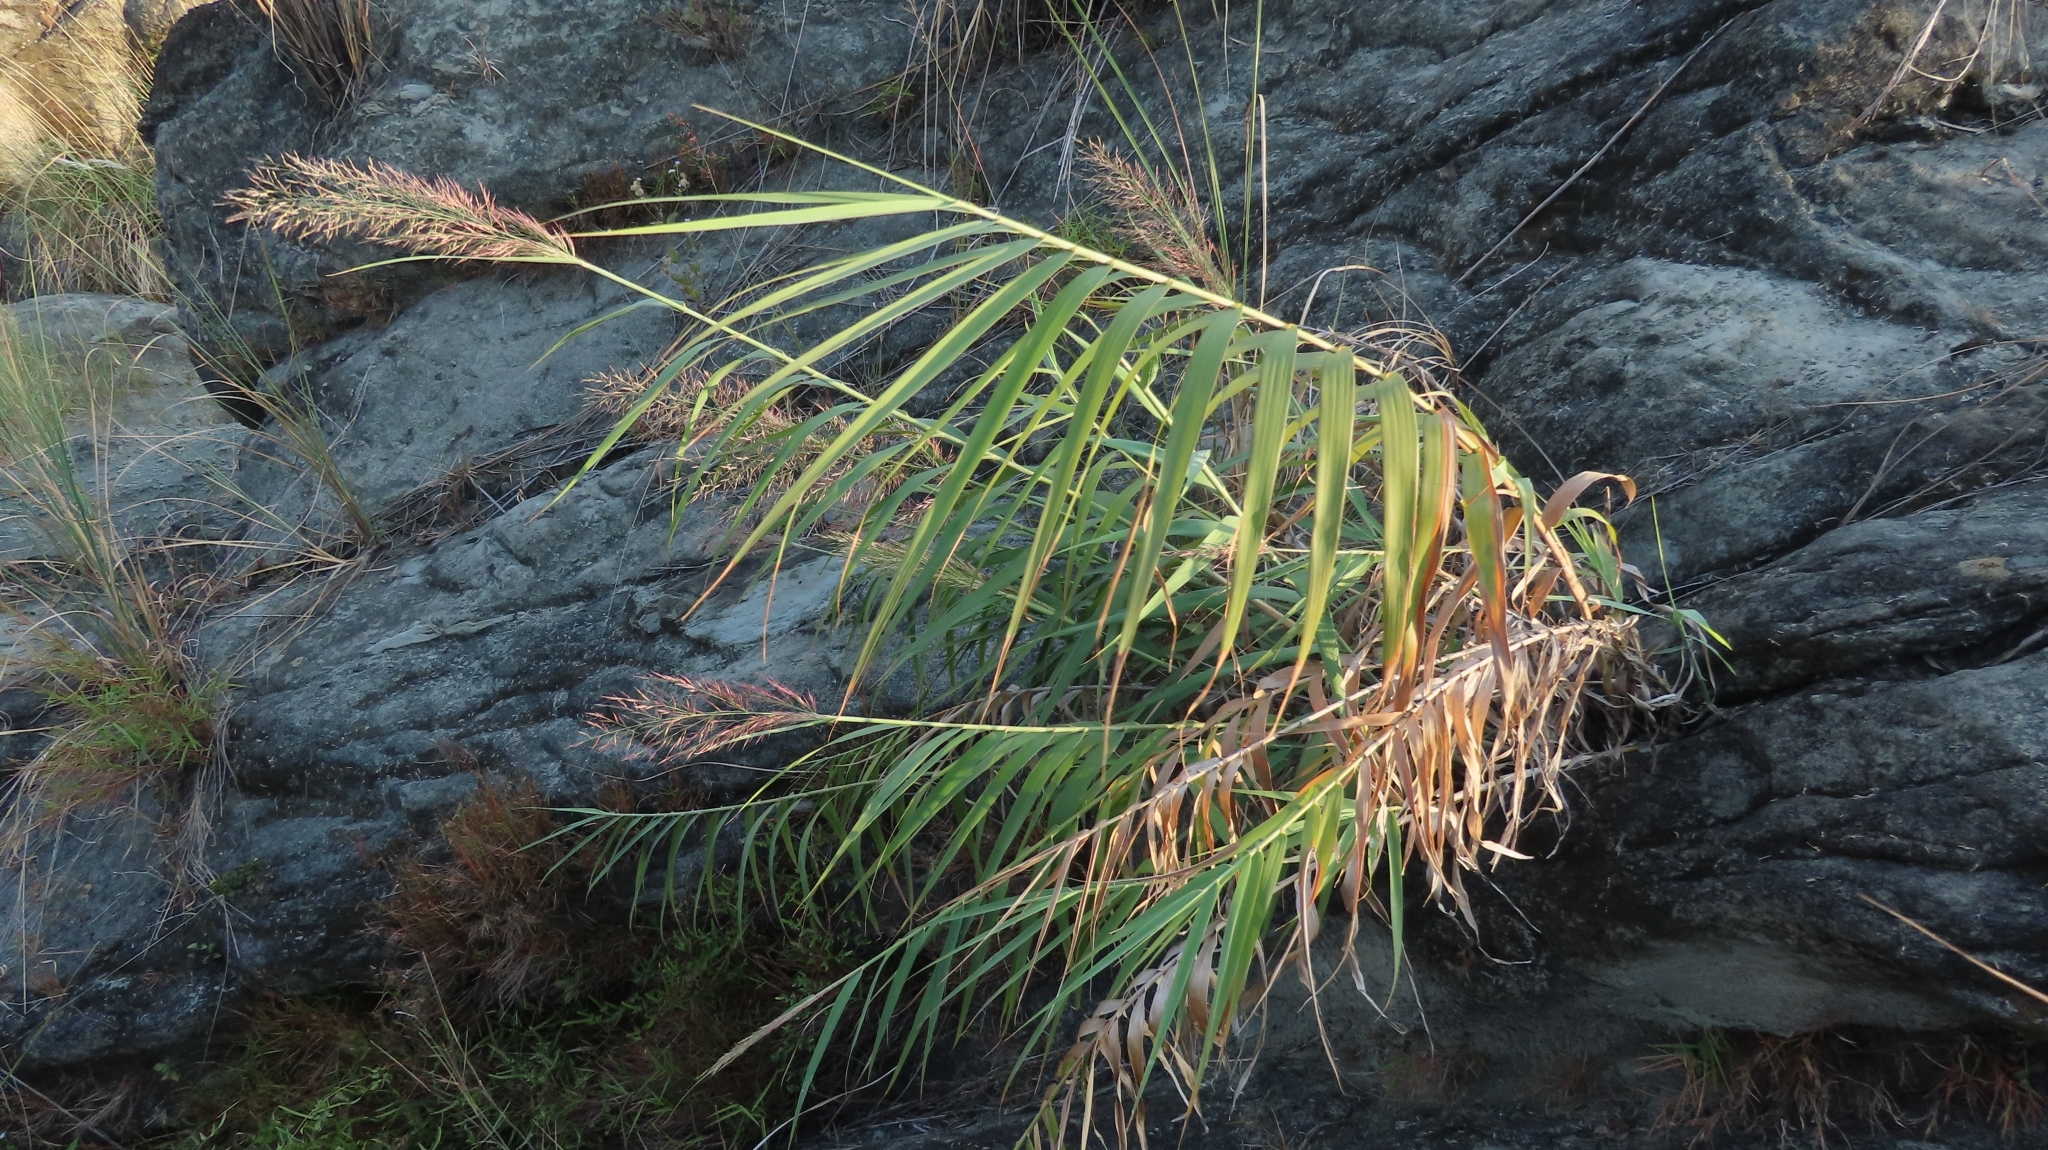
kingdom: Plantae
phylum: Tracheophyta
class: Liliopsida
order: Poales
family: Poaceae
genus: Arundo
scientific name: Arundo formosana
